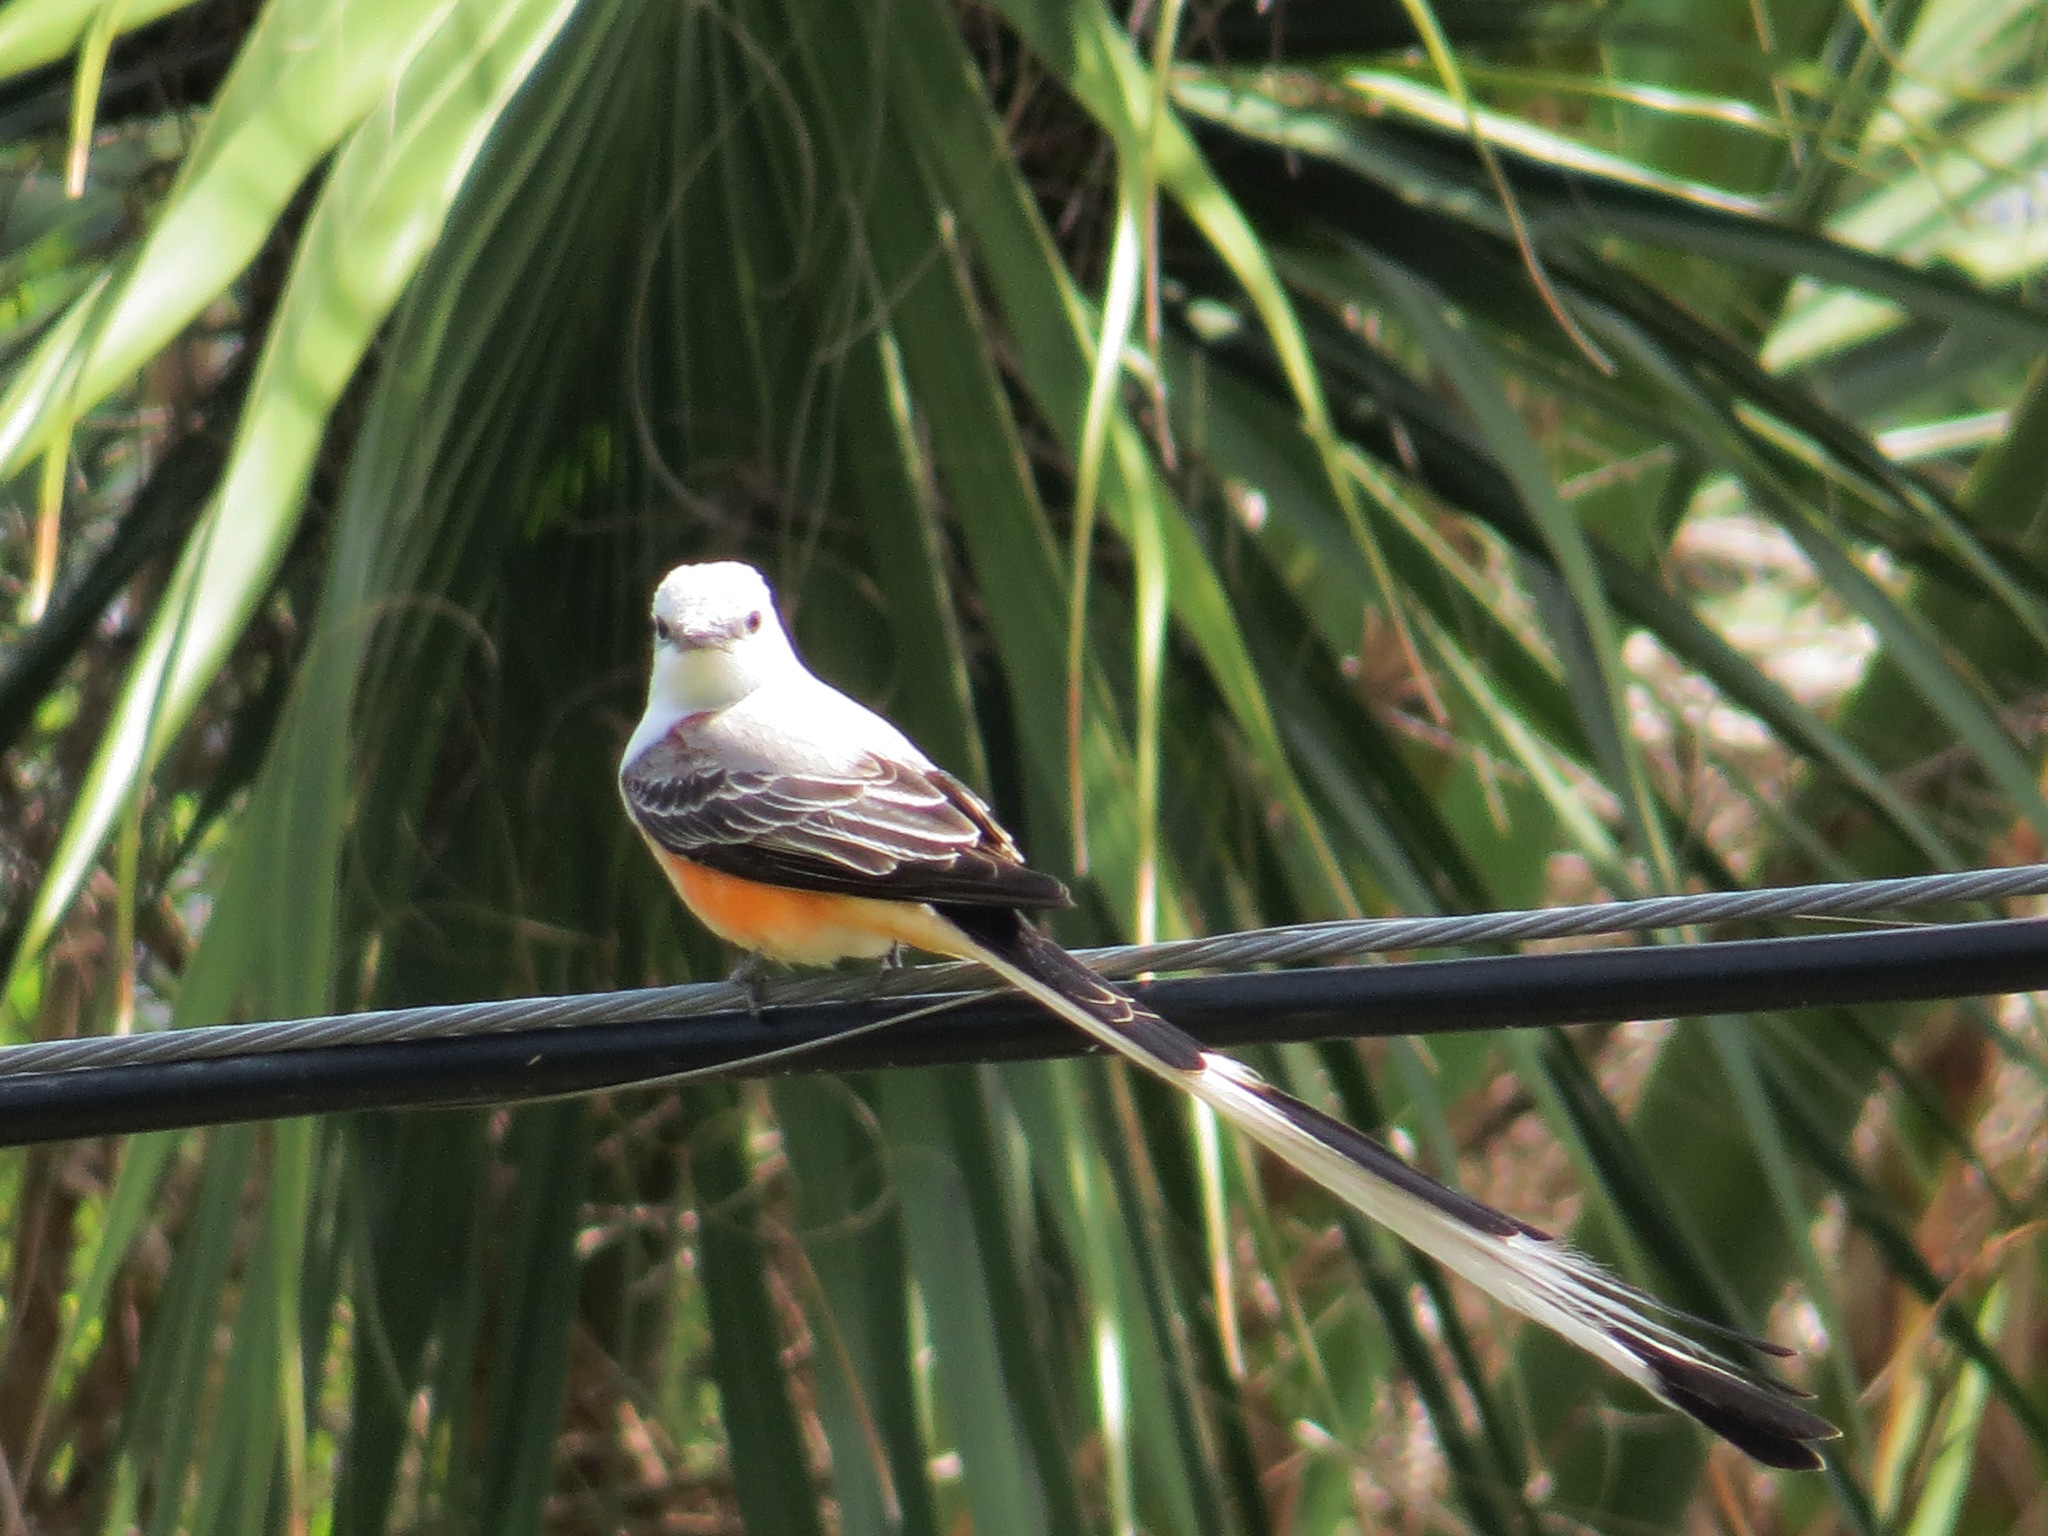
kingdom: Animalia
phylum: Chordata
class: Aves
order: Passeriformes
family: Tyrannidae
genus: Tyrannus
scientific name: Tyrannus forficatus
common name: Scissor-tailed flycatcher
